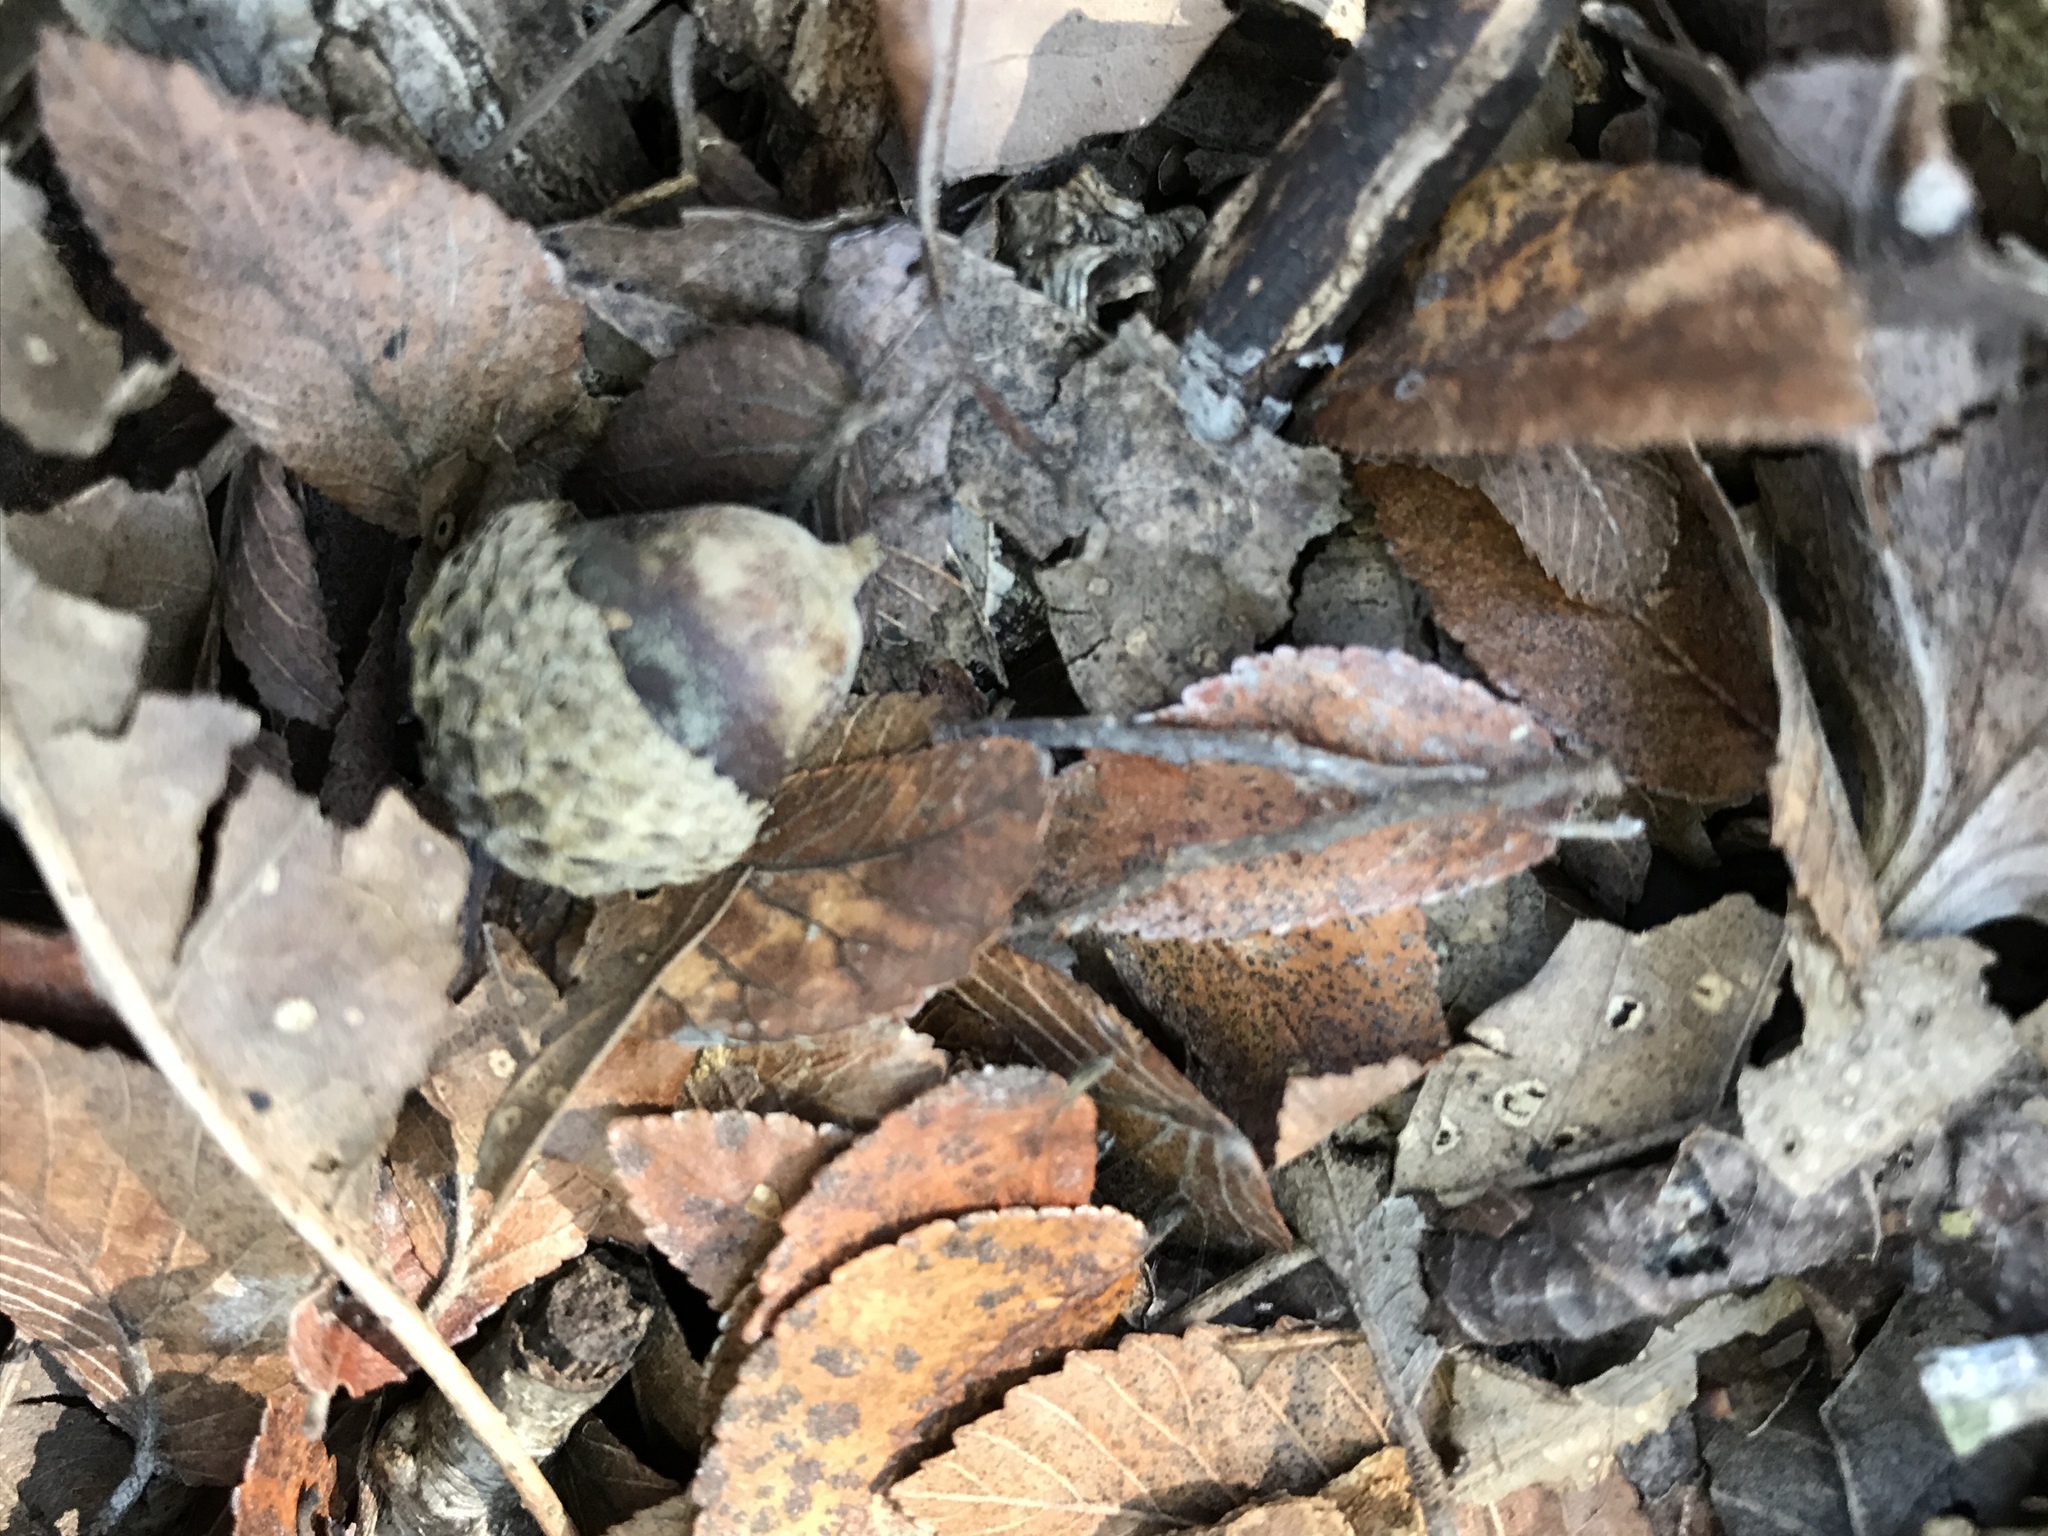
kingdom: Plantae
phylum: Tracheophyta
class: Magnoliopsida
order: Fagales
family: Fagaceae
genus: Quercus
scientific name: Quercus muehlenbergii
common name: Chinkapin oak
